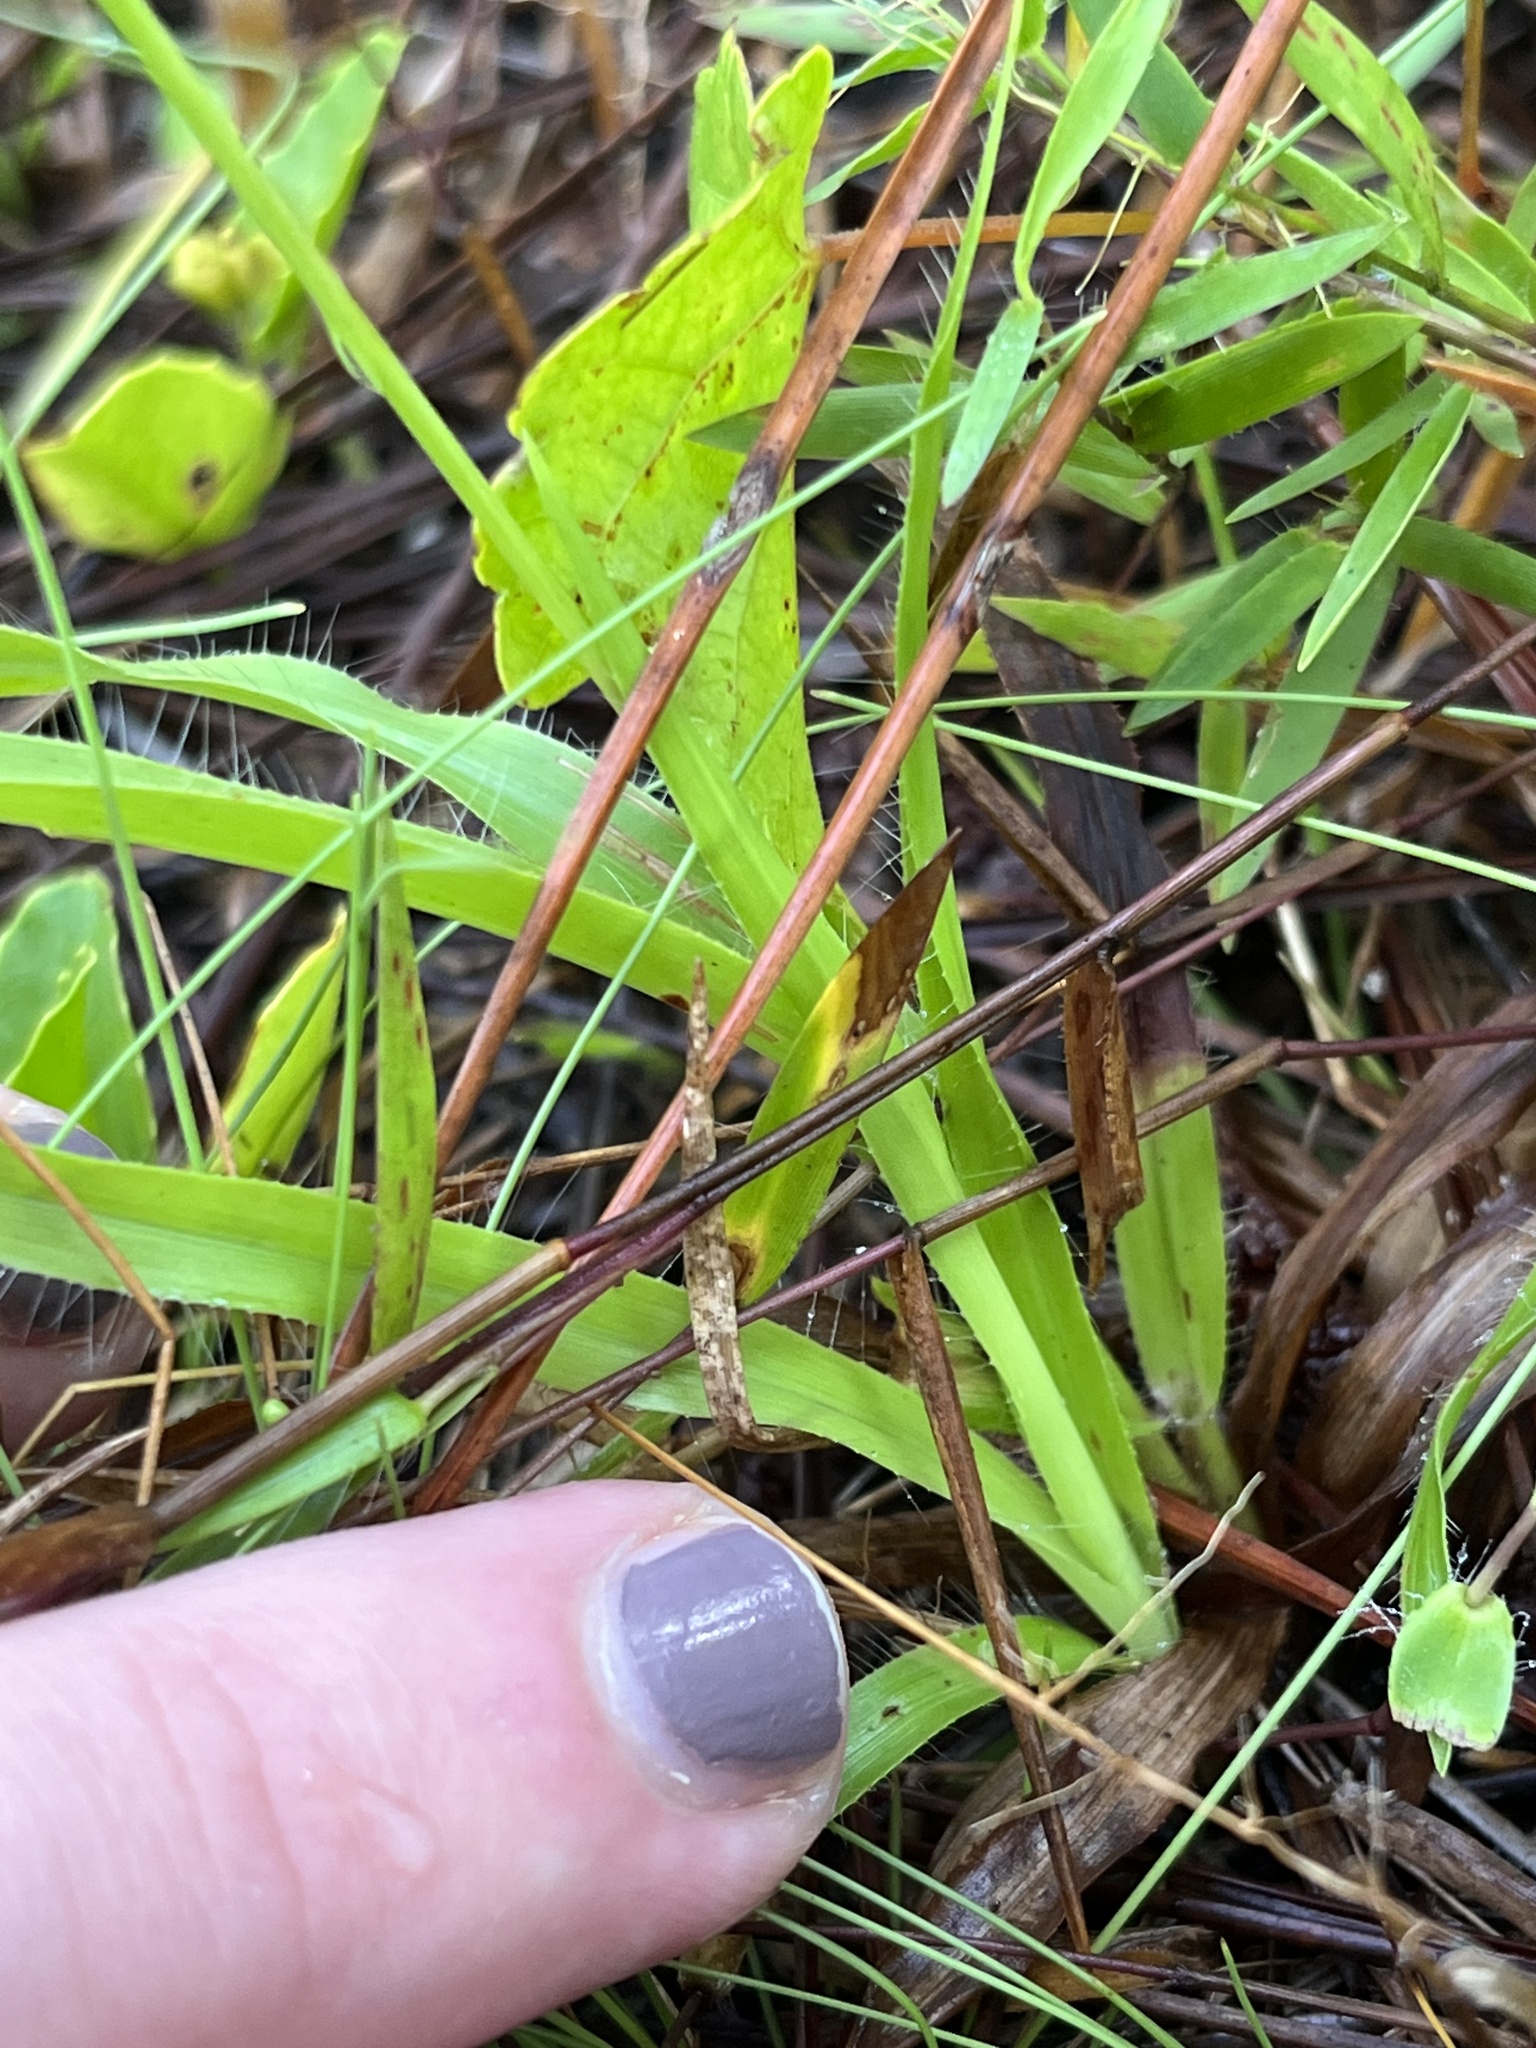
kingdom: Plantae
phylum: Tracheophyta
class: Liliopsida
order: Poales
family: Poaceae
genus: Paspalum
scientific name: Paspalum setaceum
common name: Slender paspalum
